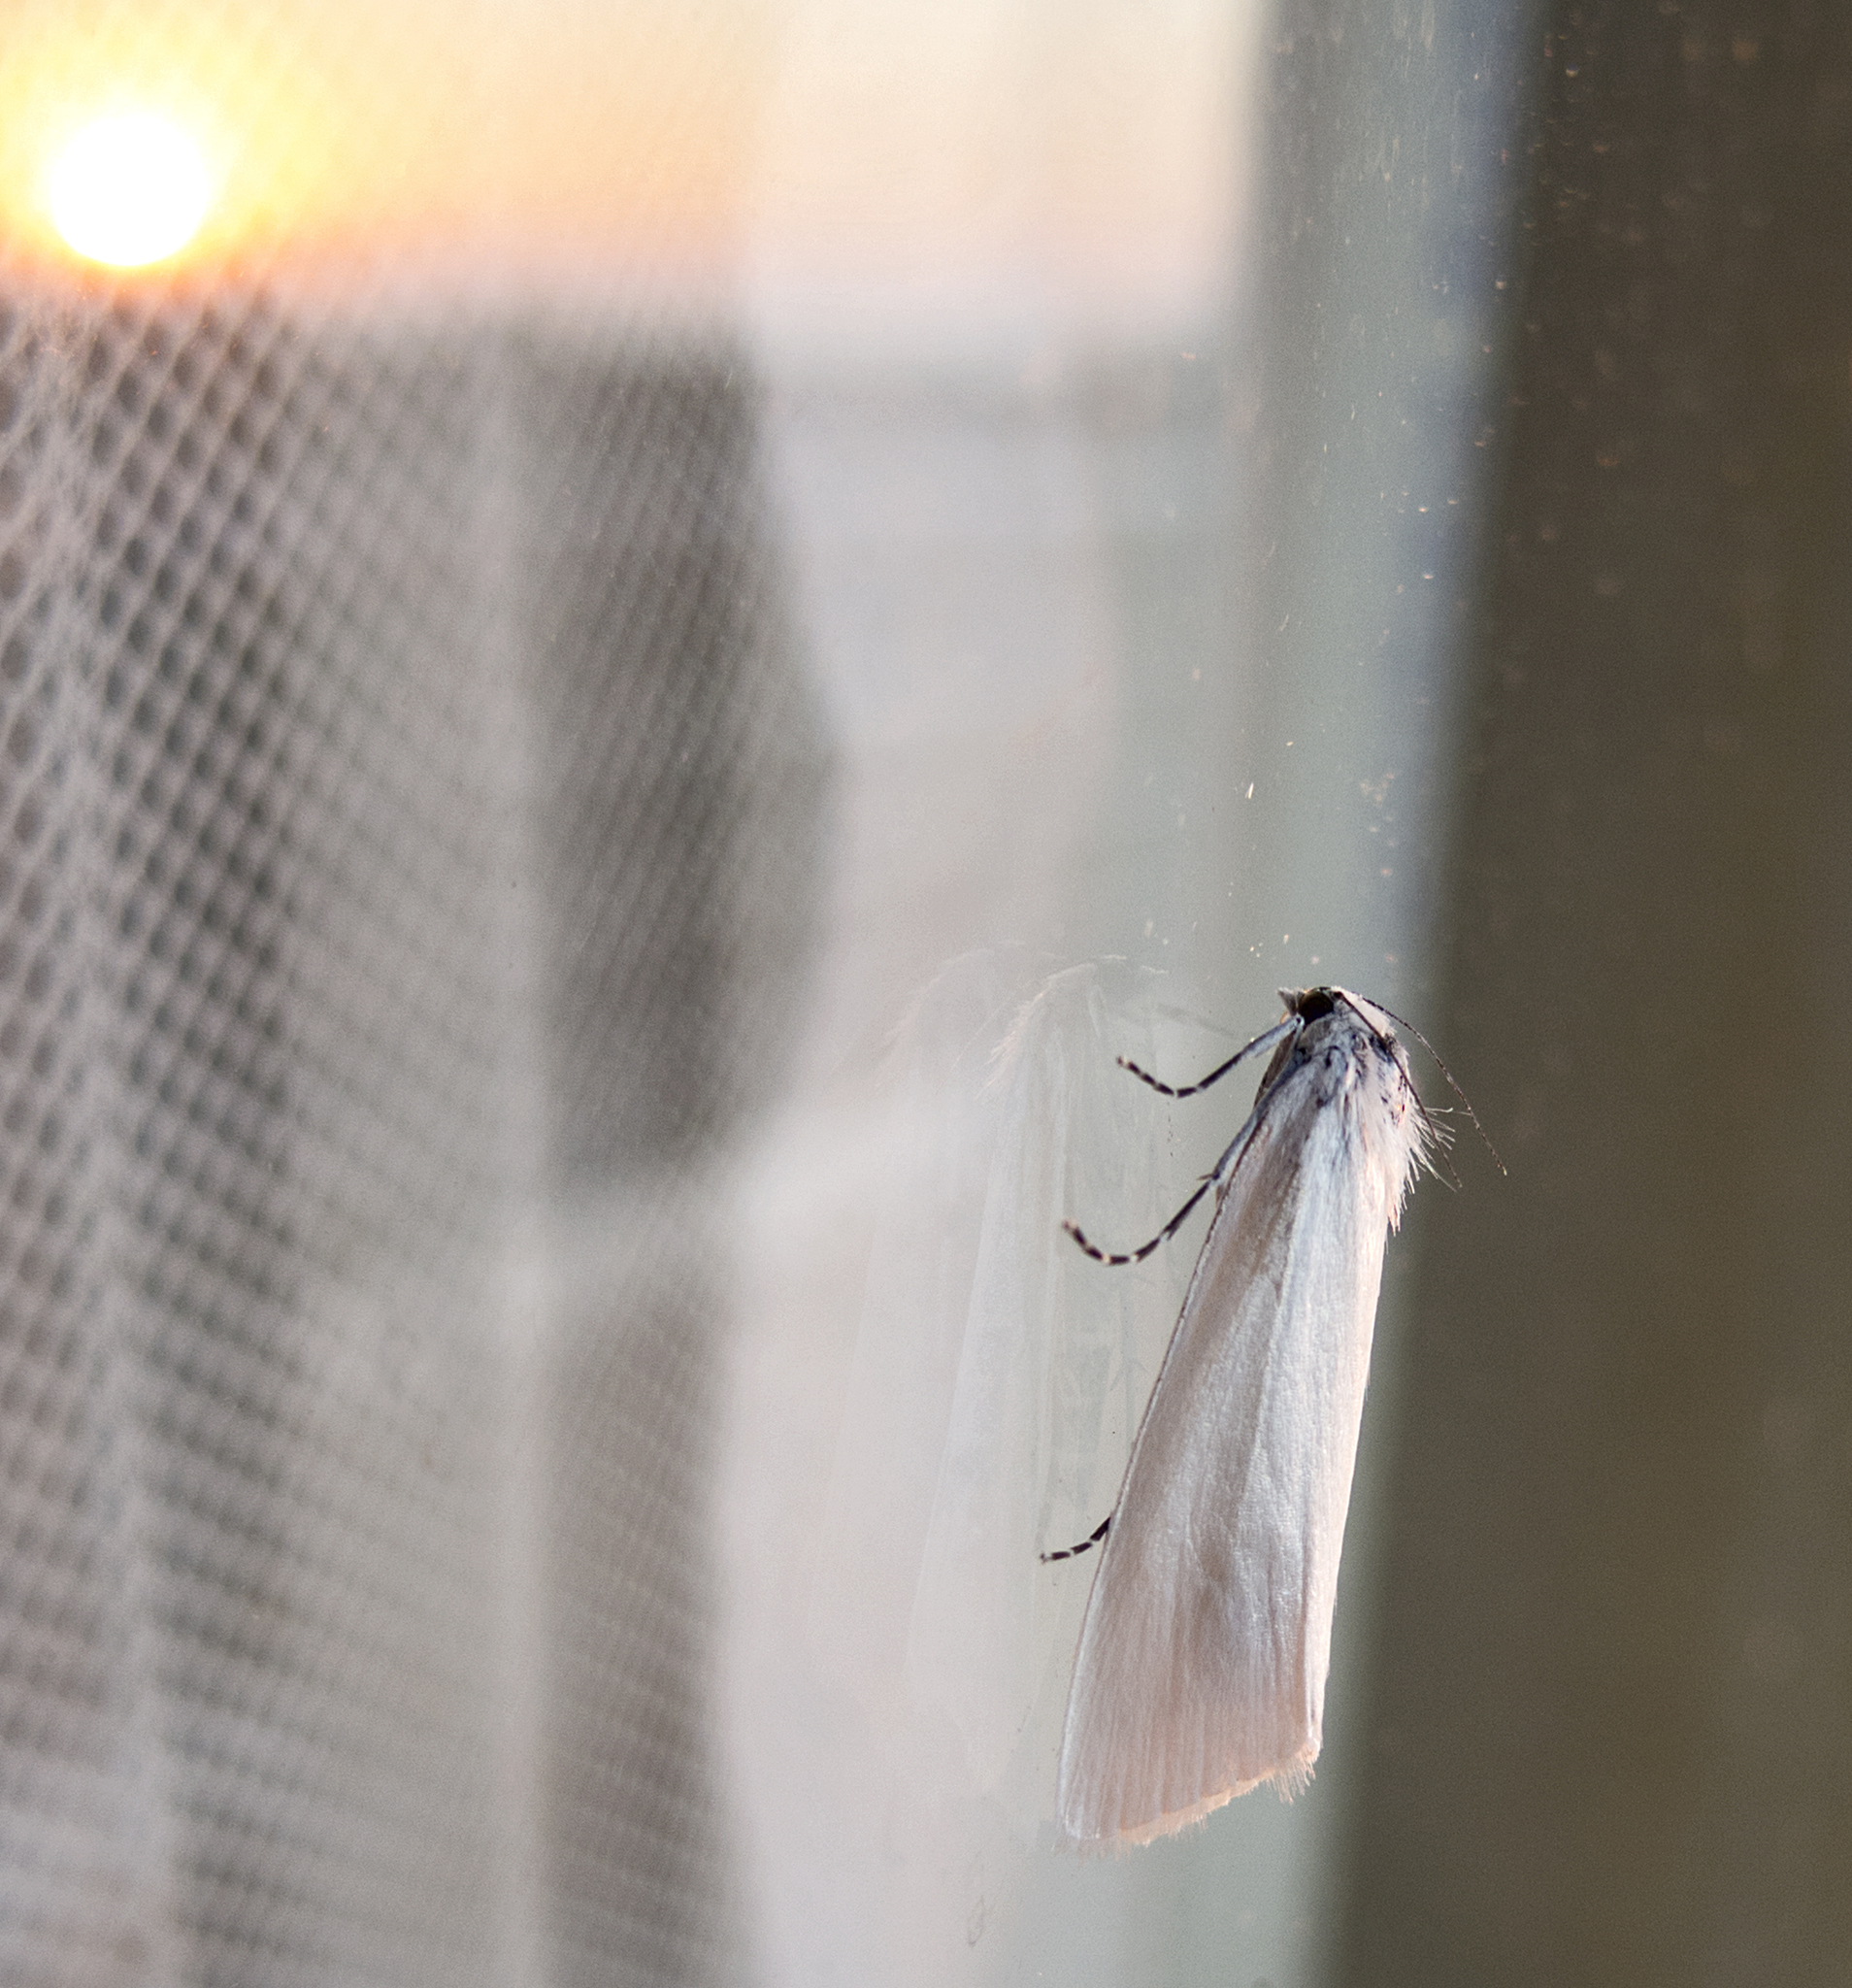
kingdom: Animalia
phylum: Arthropoda
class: Insecta
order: Lepidoptera
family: Crambidae
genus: Scirpophaga
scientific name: Scirpophaga praelata
